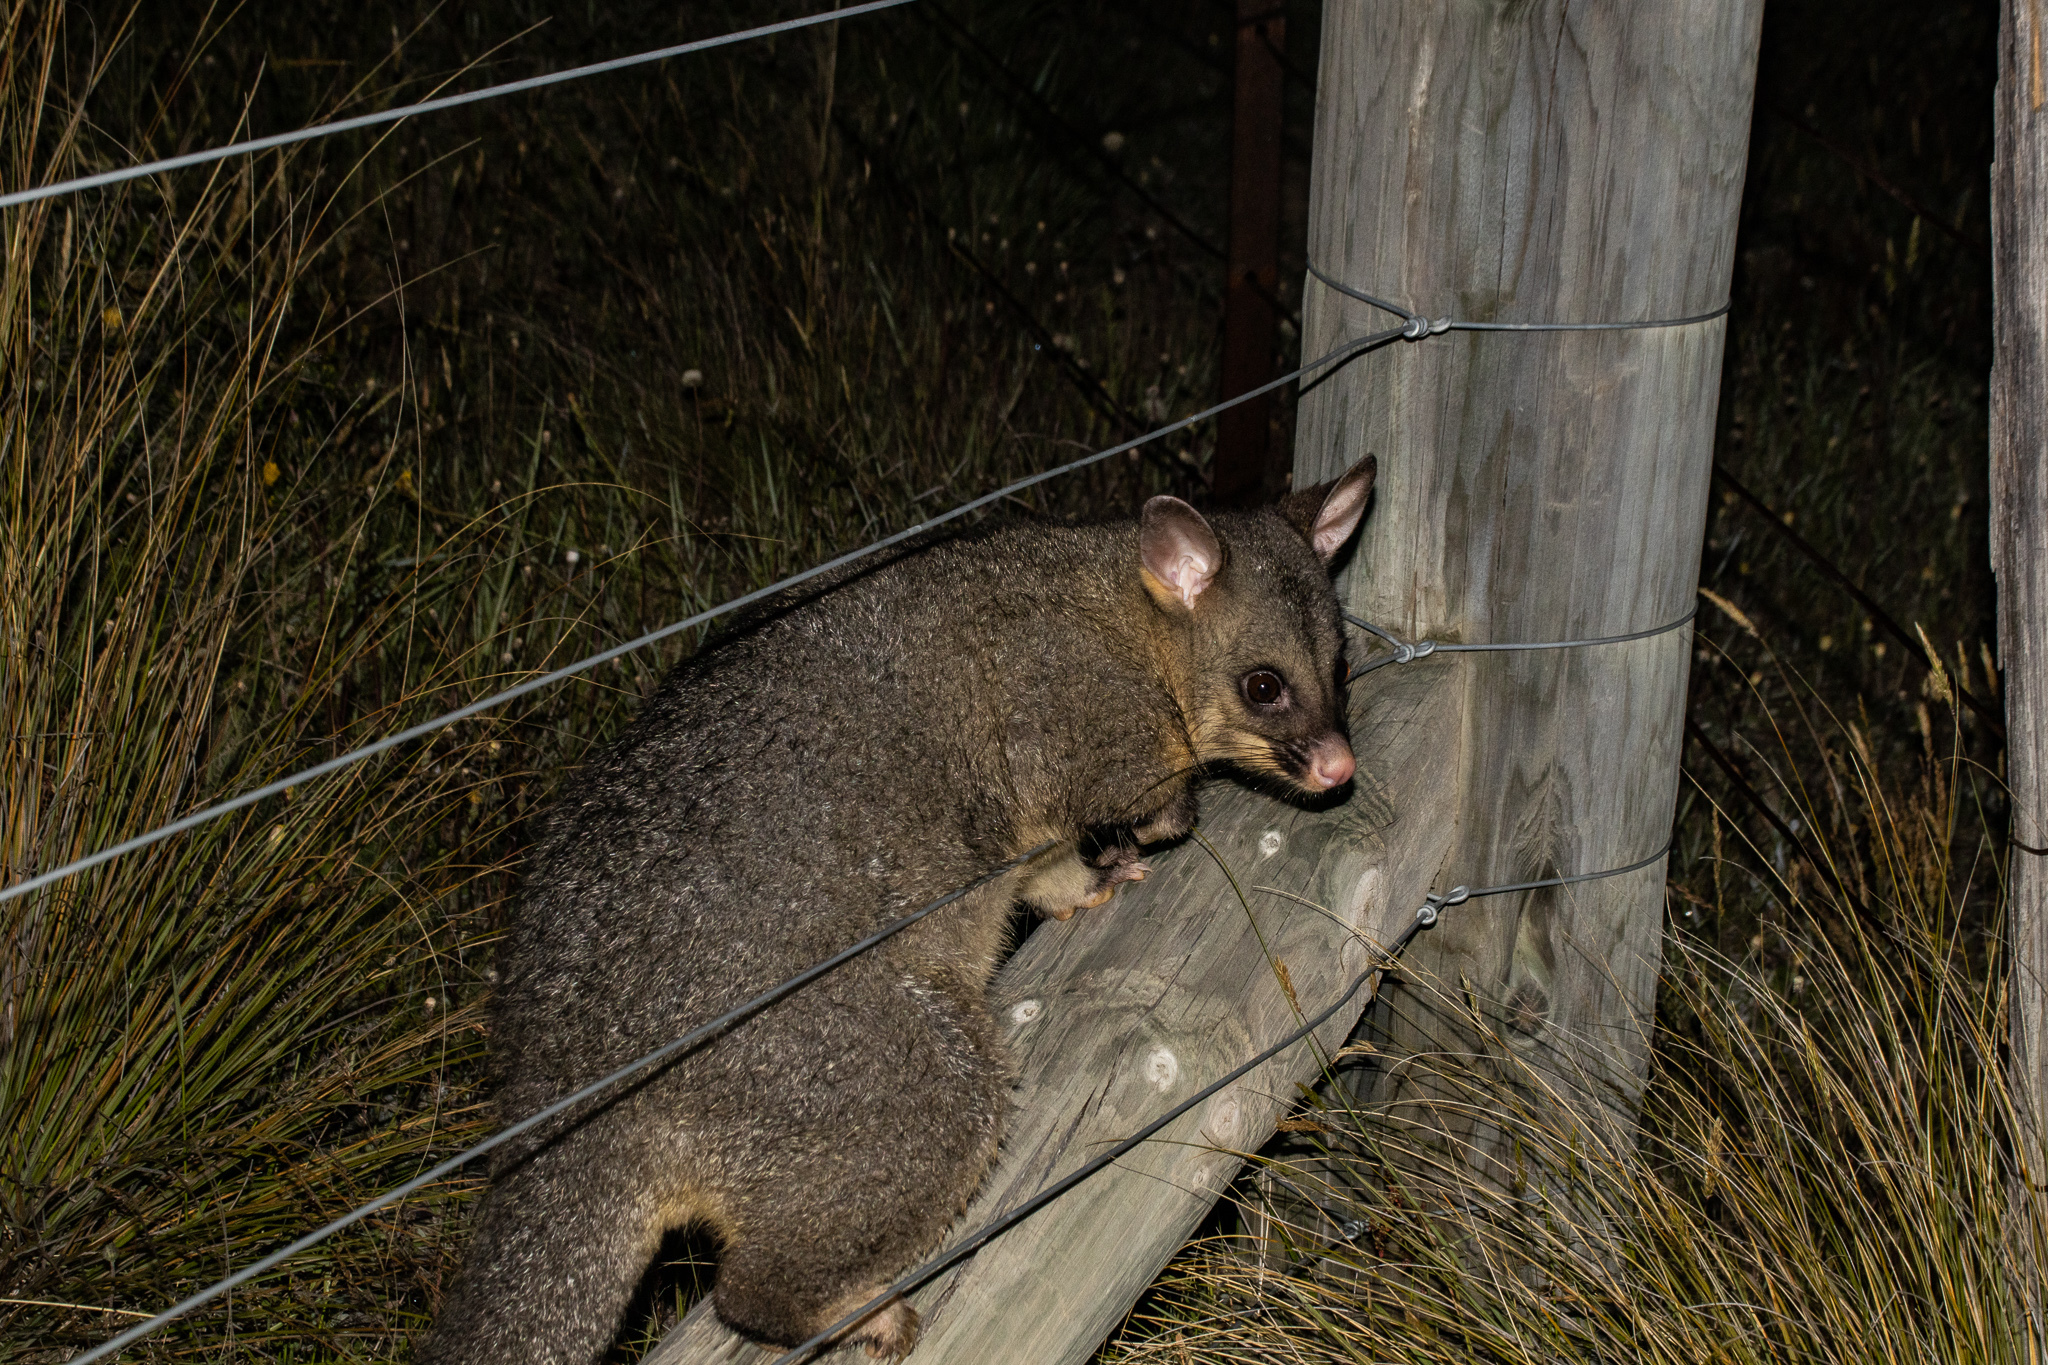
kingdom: Animalia
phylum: Chordata
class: Mammalia
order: Diprotodontia
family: Phalangeridae
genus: Trichosurus
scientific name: Trichosurus vulpecula
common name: Common brushtail
